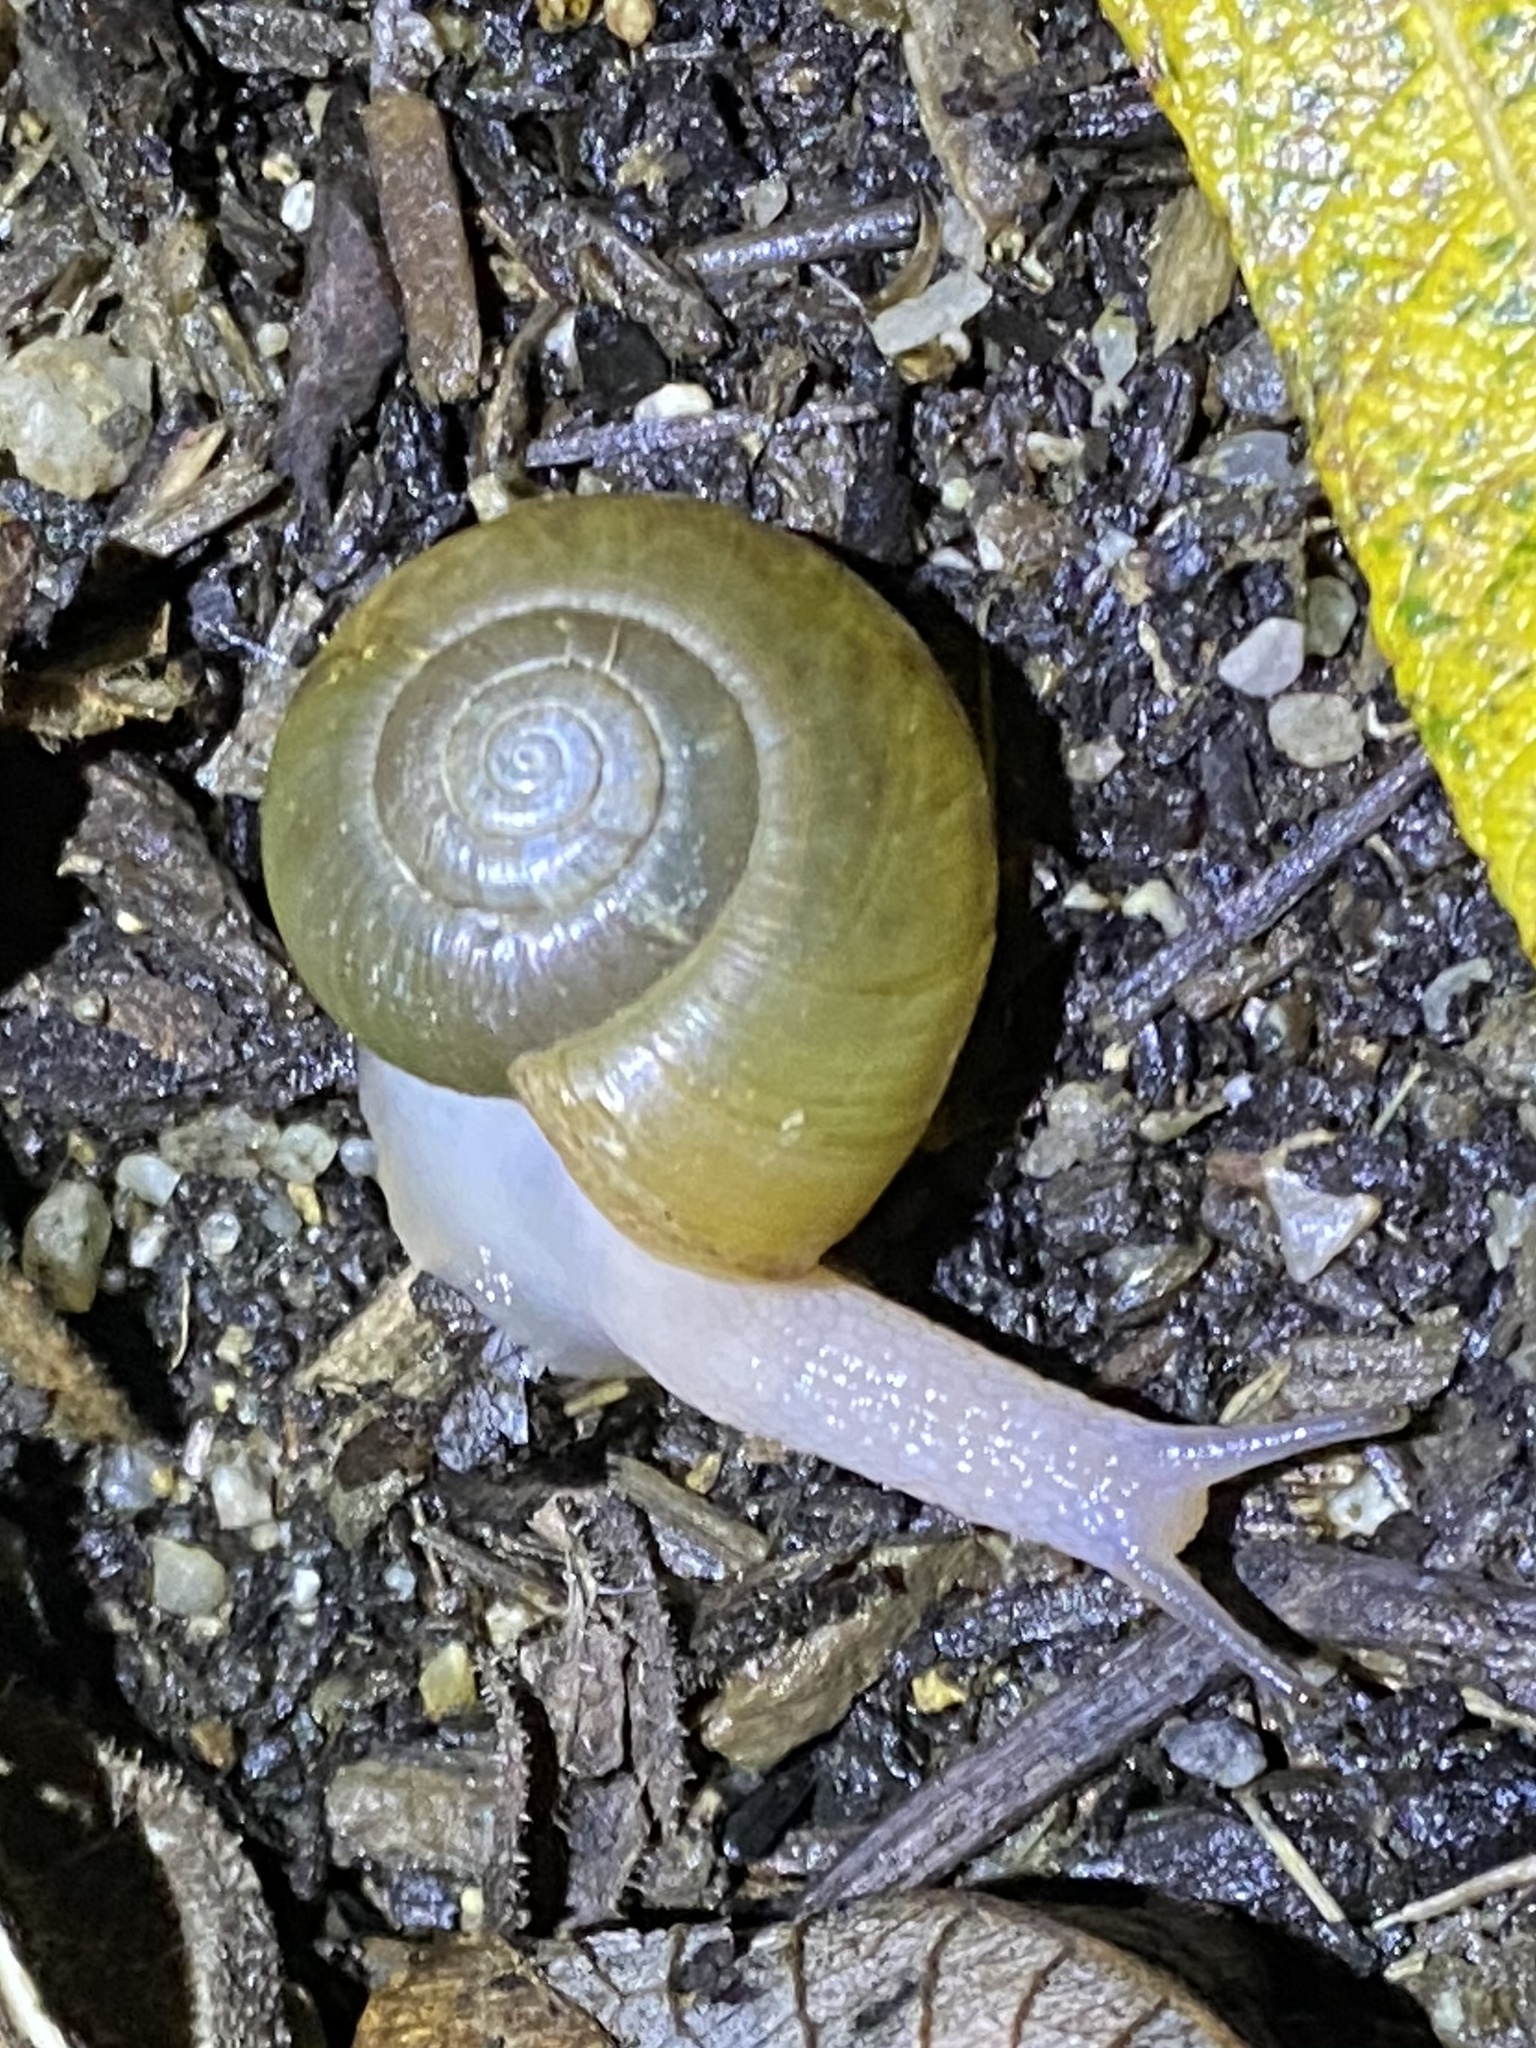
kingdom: Animalia
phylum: Mollusca
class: Gastropoda
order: Stylommatophora
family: Haplotrematidae
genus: Haplotrema
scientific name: Haplotrema minimum
